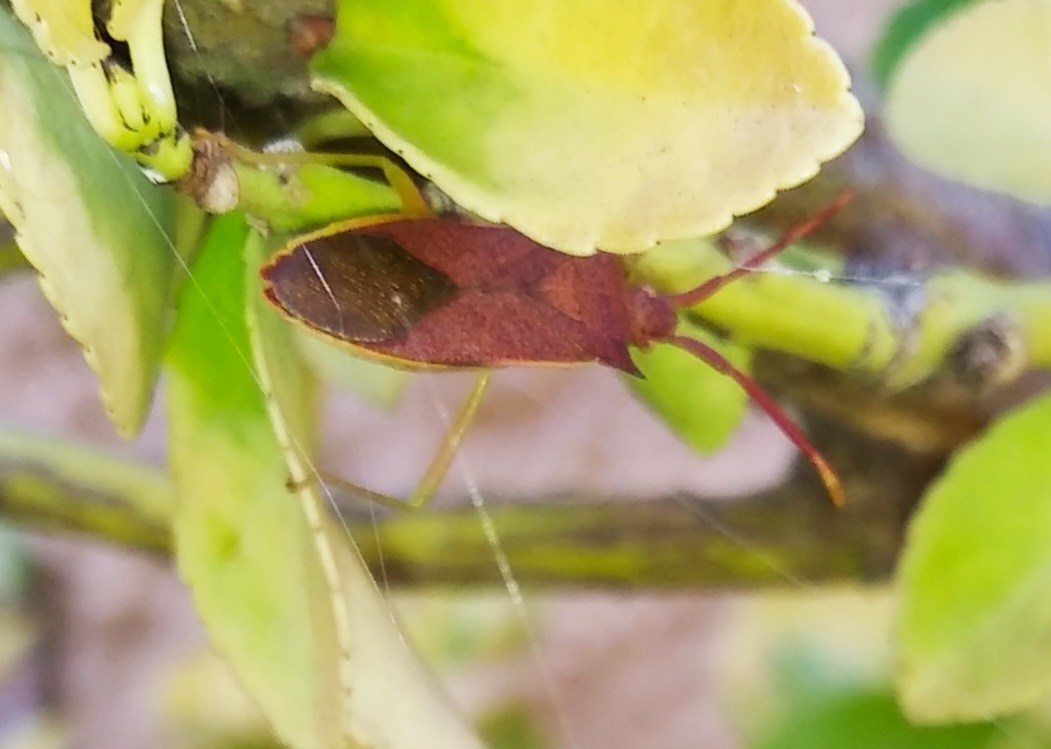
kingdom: Animalia
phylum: Arthropoda
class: Insecta
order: Hemiptera
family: Coreidae
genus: Gonocerus
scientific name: Gonocerus insidiator
